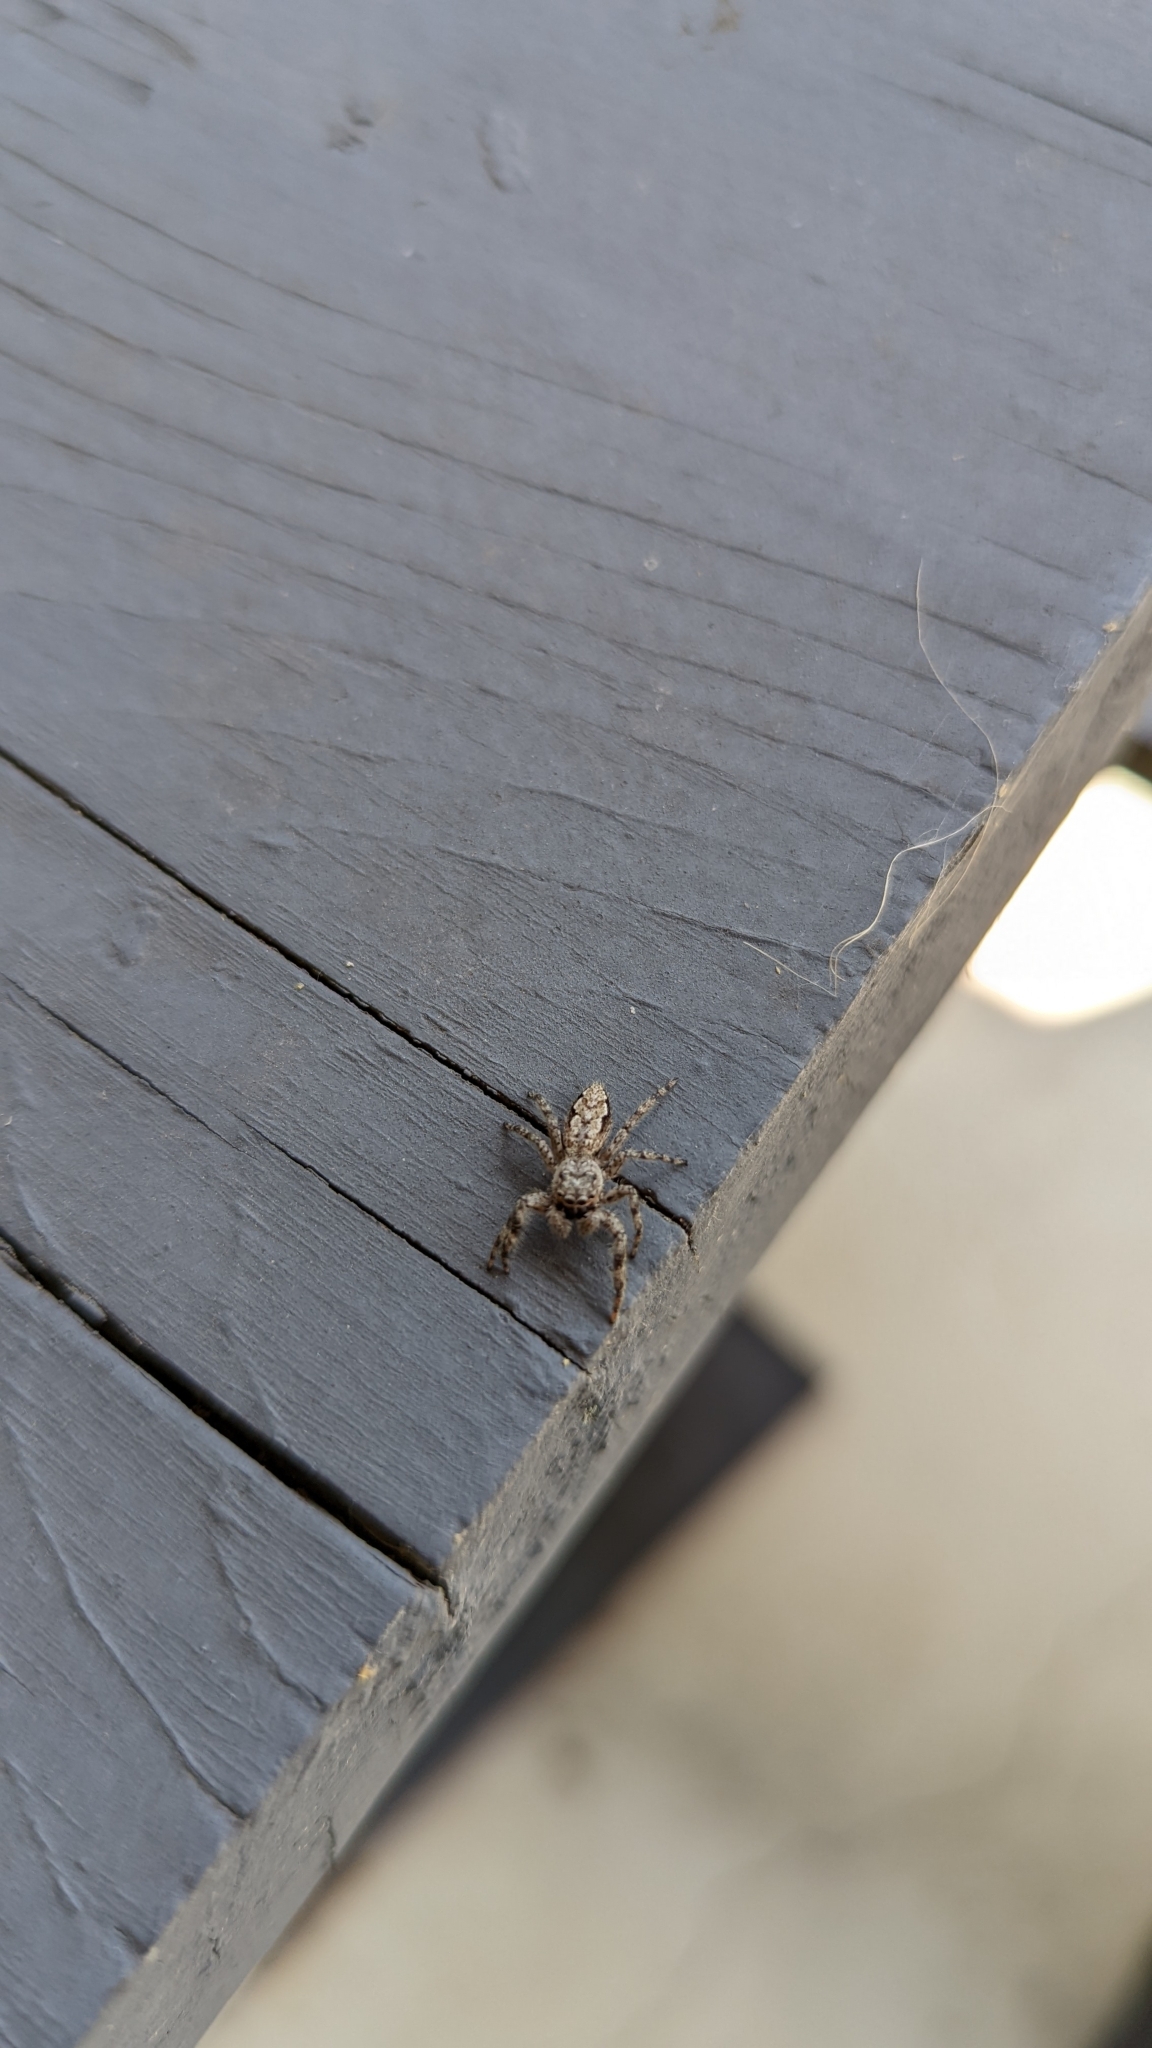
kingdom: Animalia
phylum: Arthropoda
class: Arachnida
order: Araneae
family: Salticidae
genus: Platycryptus
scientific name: Platycryptus undatus
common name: Tan jumping spider
